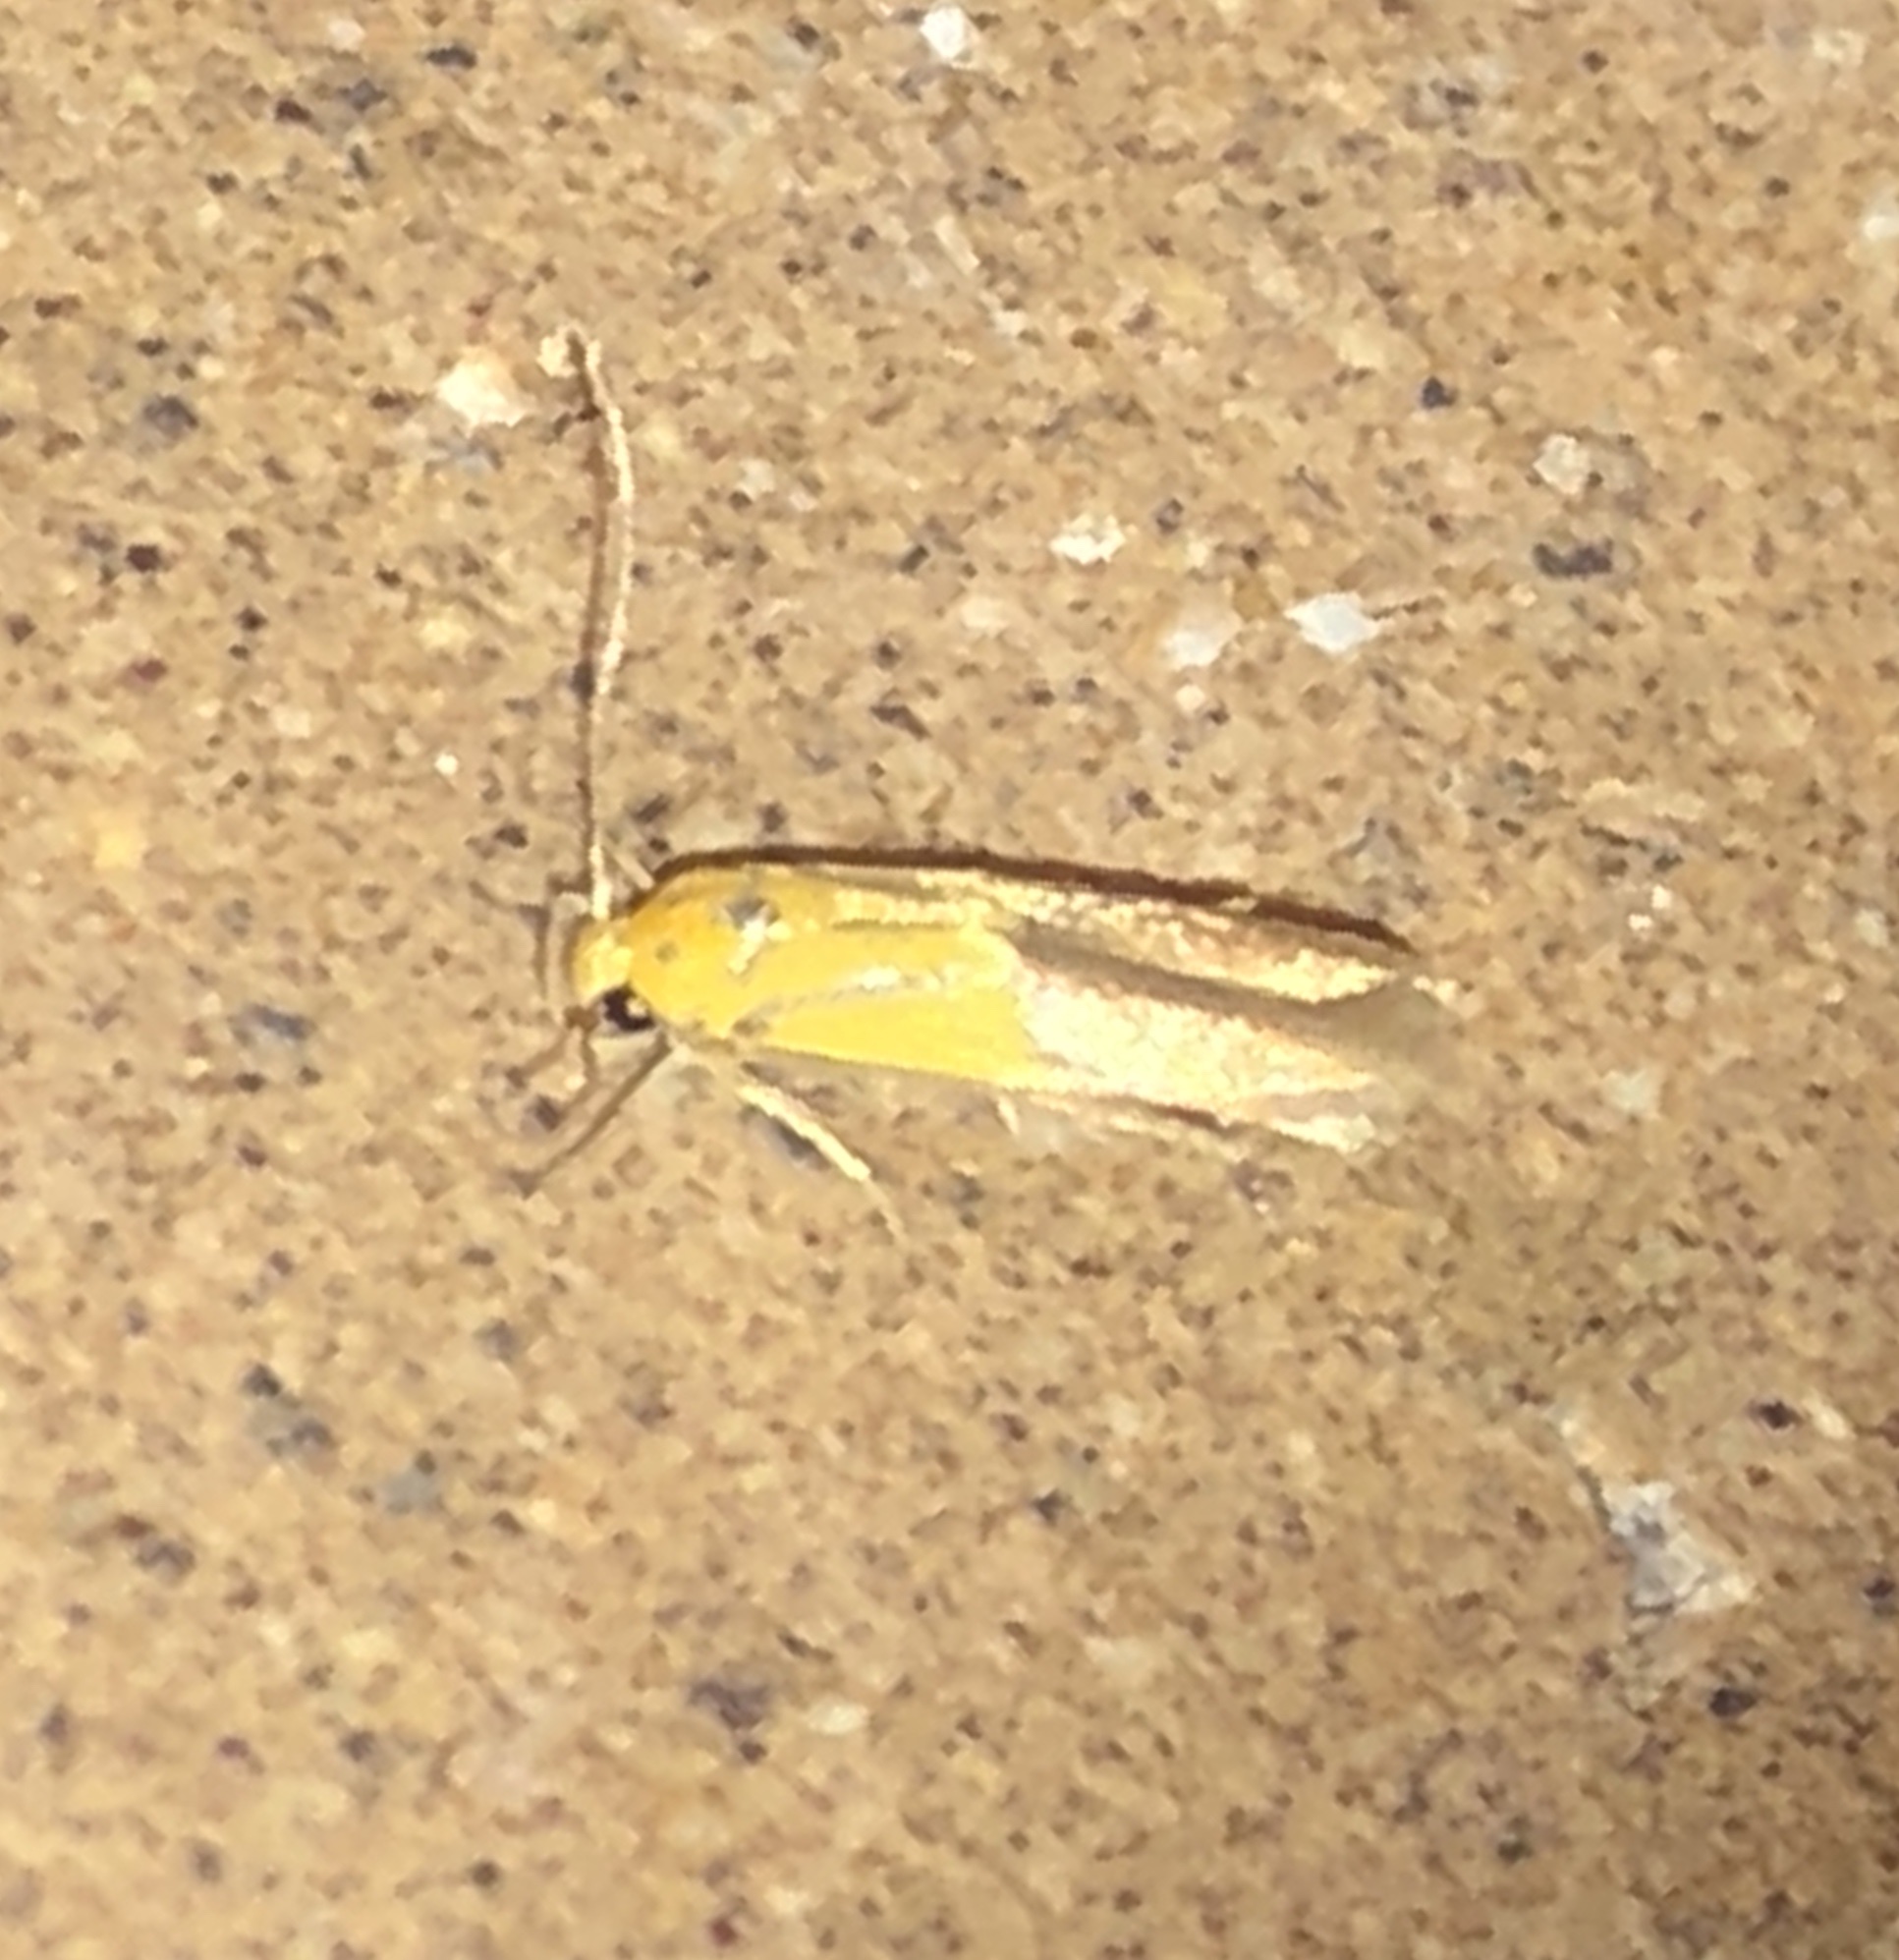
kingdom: Animalia
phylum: Arthropoda
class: Insecta
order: Lepidoptera
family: Stathmopodidae
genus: Stathmopoda
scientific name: Stathmopoda auriferella
